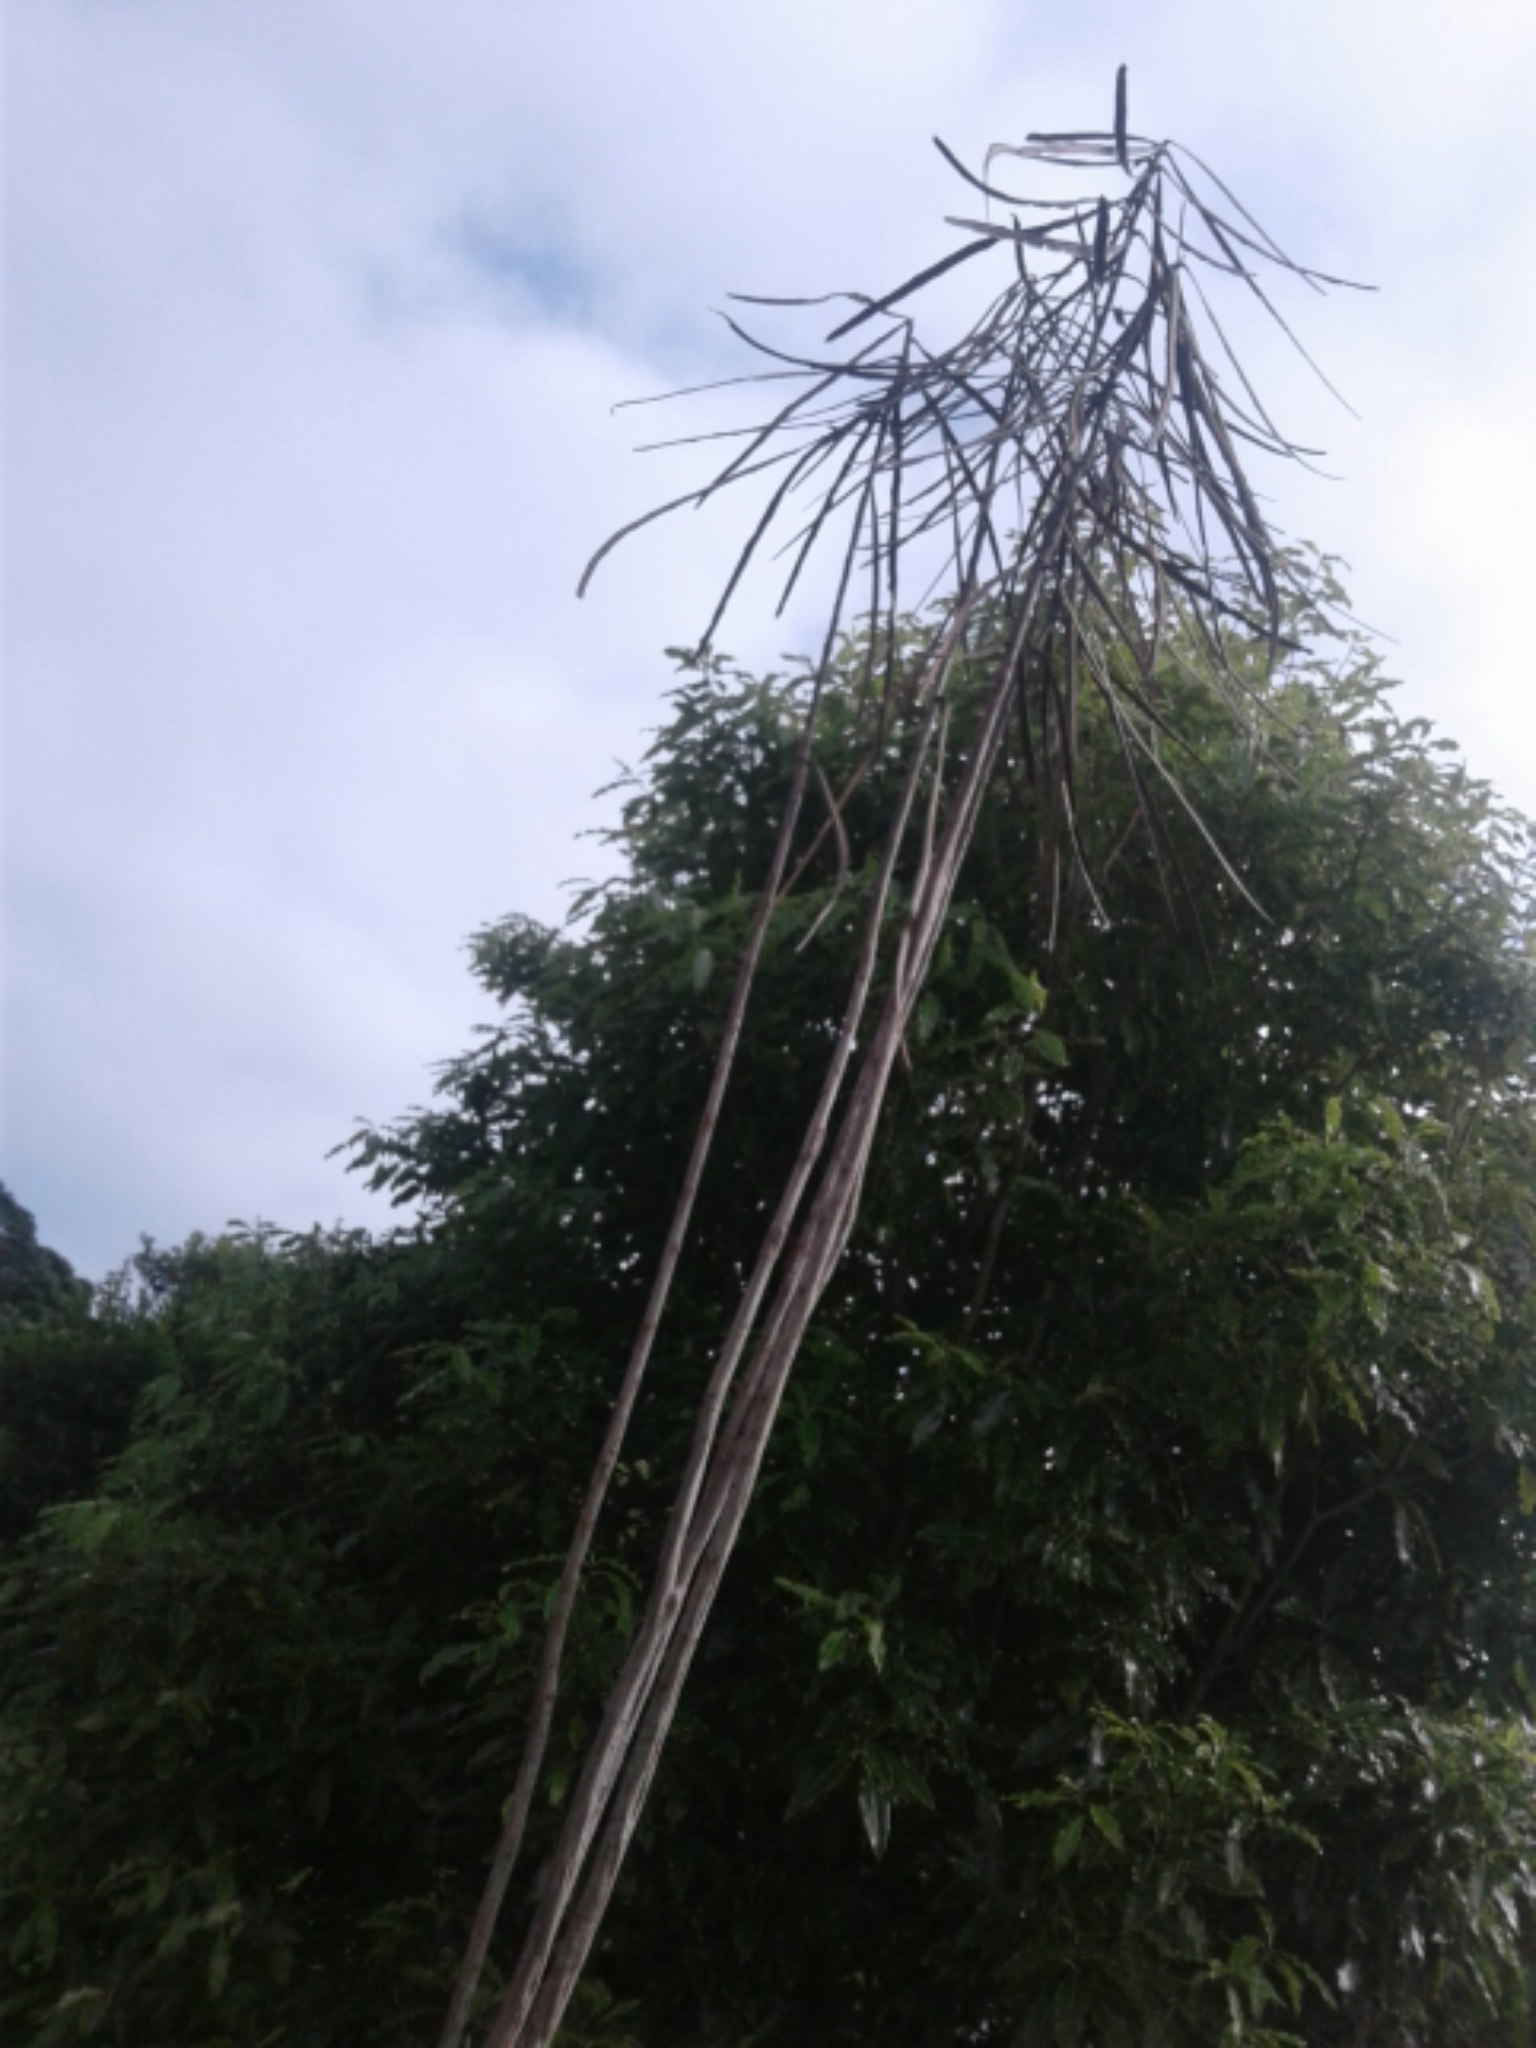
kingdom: Plantae
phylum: Tracheophyta
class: Magnoliopsida
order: Apiales
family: Araliaceae
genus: Pseudopanax
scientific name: Pseudopanax crassifolius
